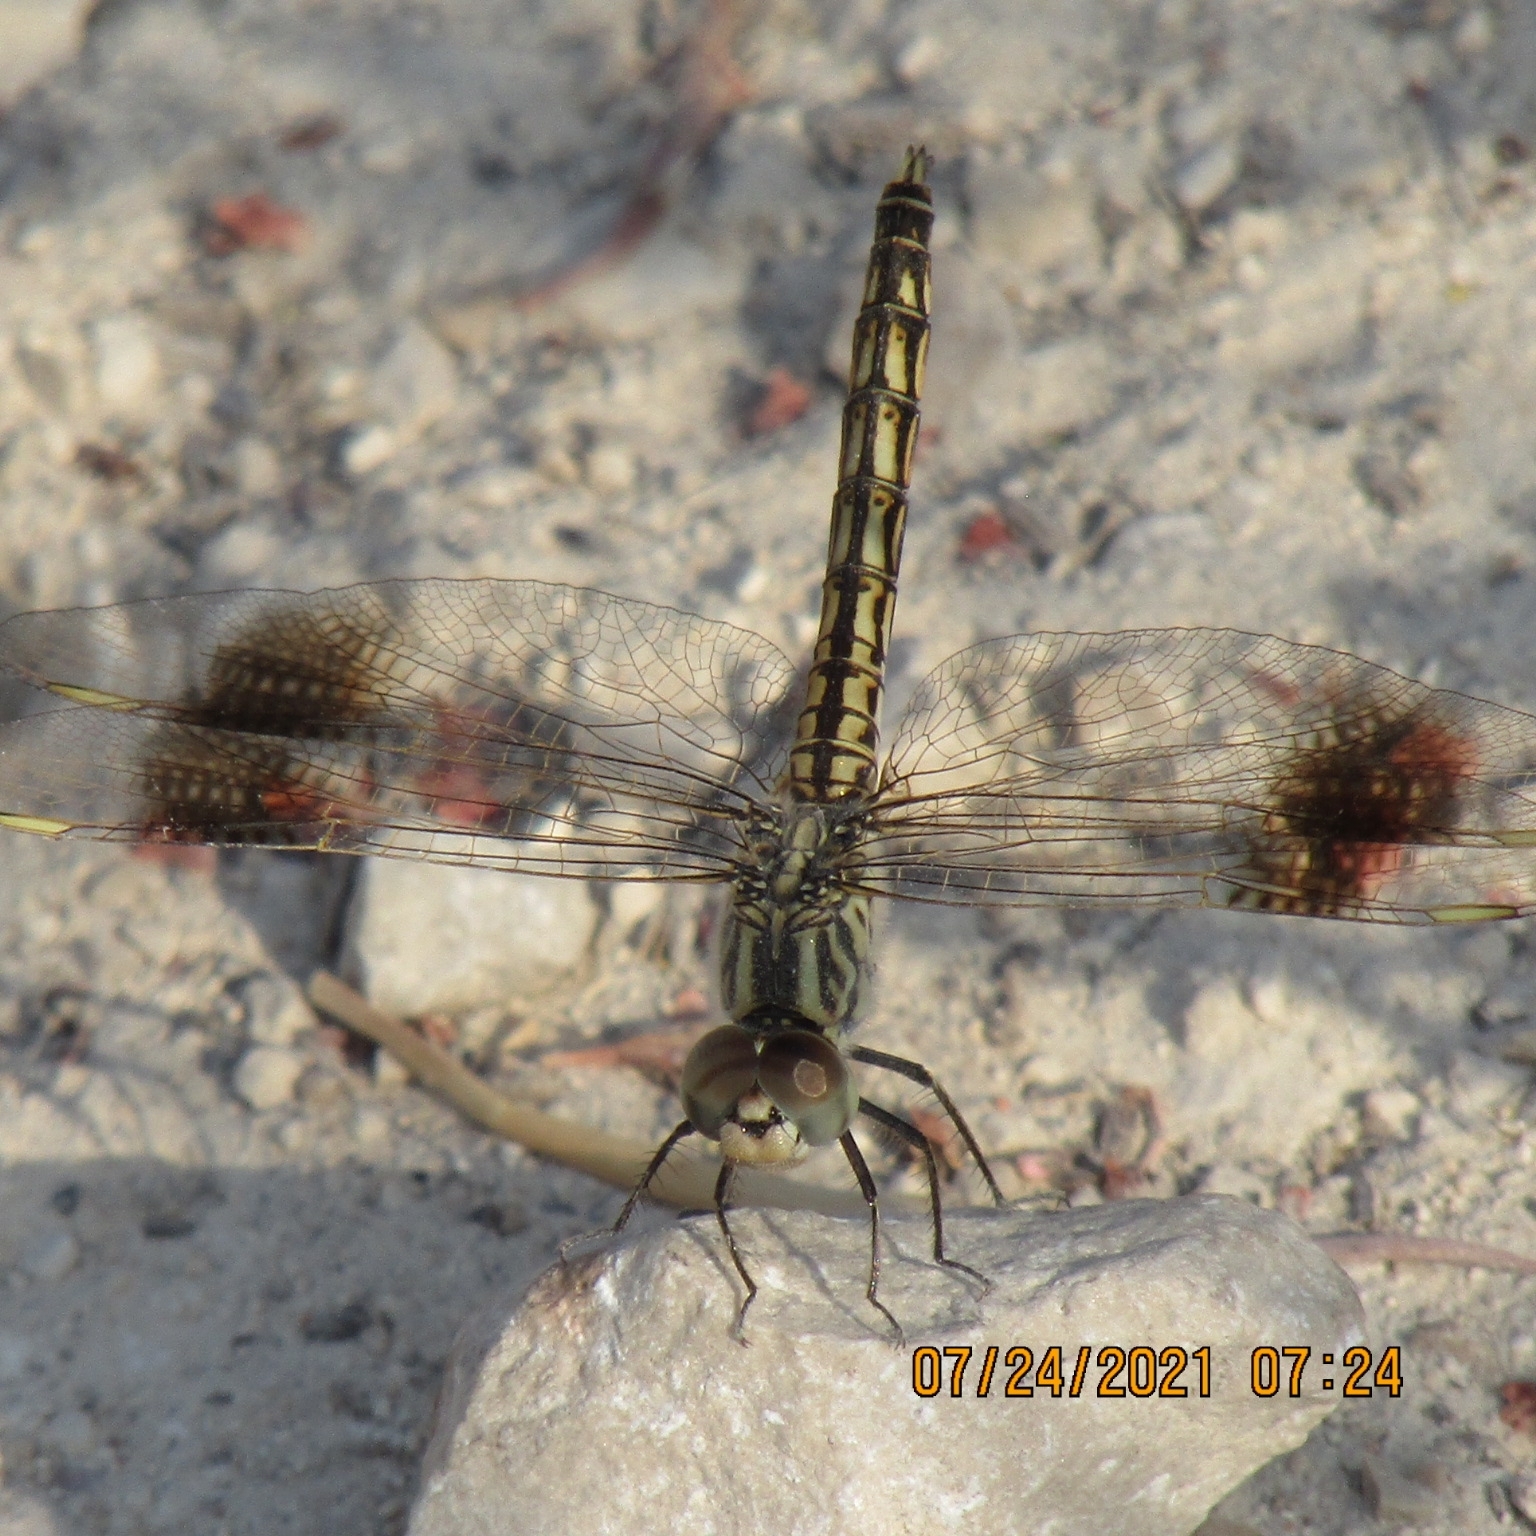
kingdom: Animalia
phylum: Arthropoda
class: Insecta
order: Odonata
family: Libellulidae
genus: Brachythemis
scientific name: Brachythemis impartita
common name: Banded groundling
